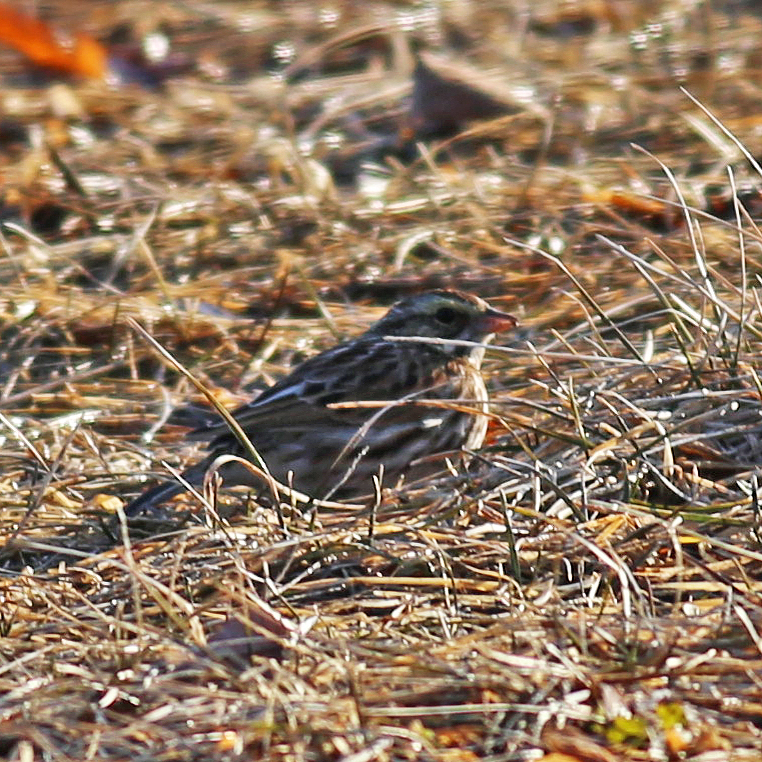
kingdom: Animalia
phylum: Chordata
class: Aves
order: Passeriformes
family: Passerellidae
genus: Passerculus
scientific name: Passerculus sandwichensis
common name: Savannah sparrow
